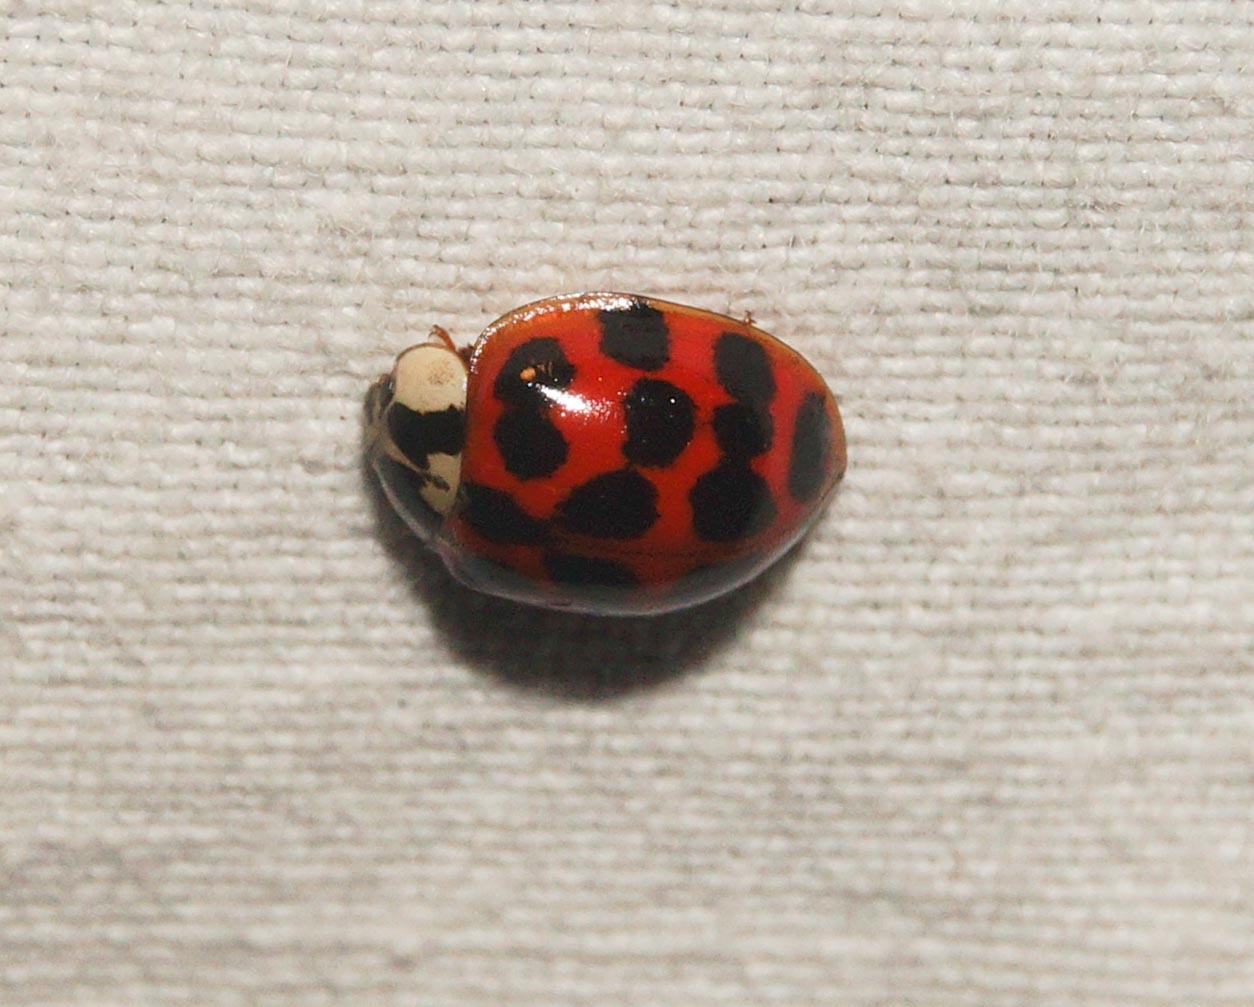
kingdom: Animalia
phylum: Arthropoda
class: Insecta
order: Coleoptera
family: Coccinellidae
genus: Harmonia
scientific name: Harmonia axyridis
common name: Harlequin ladybird
